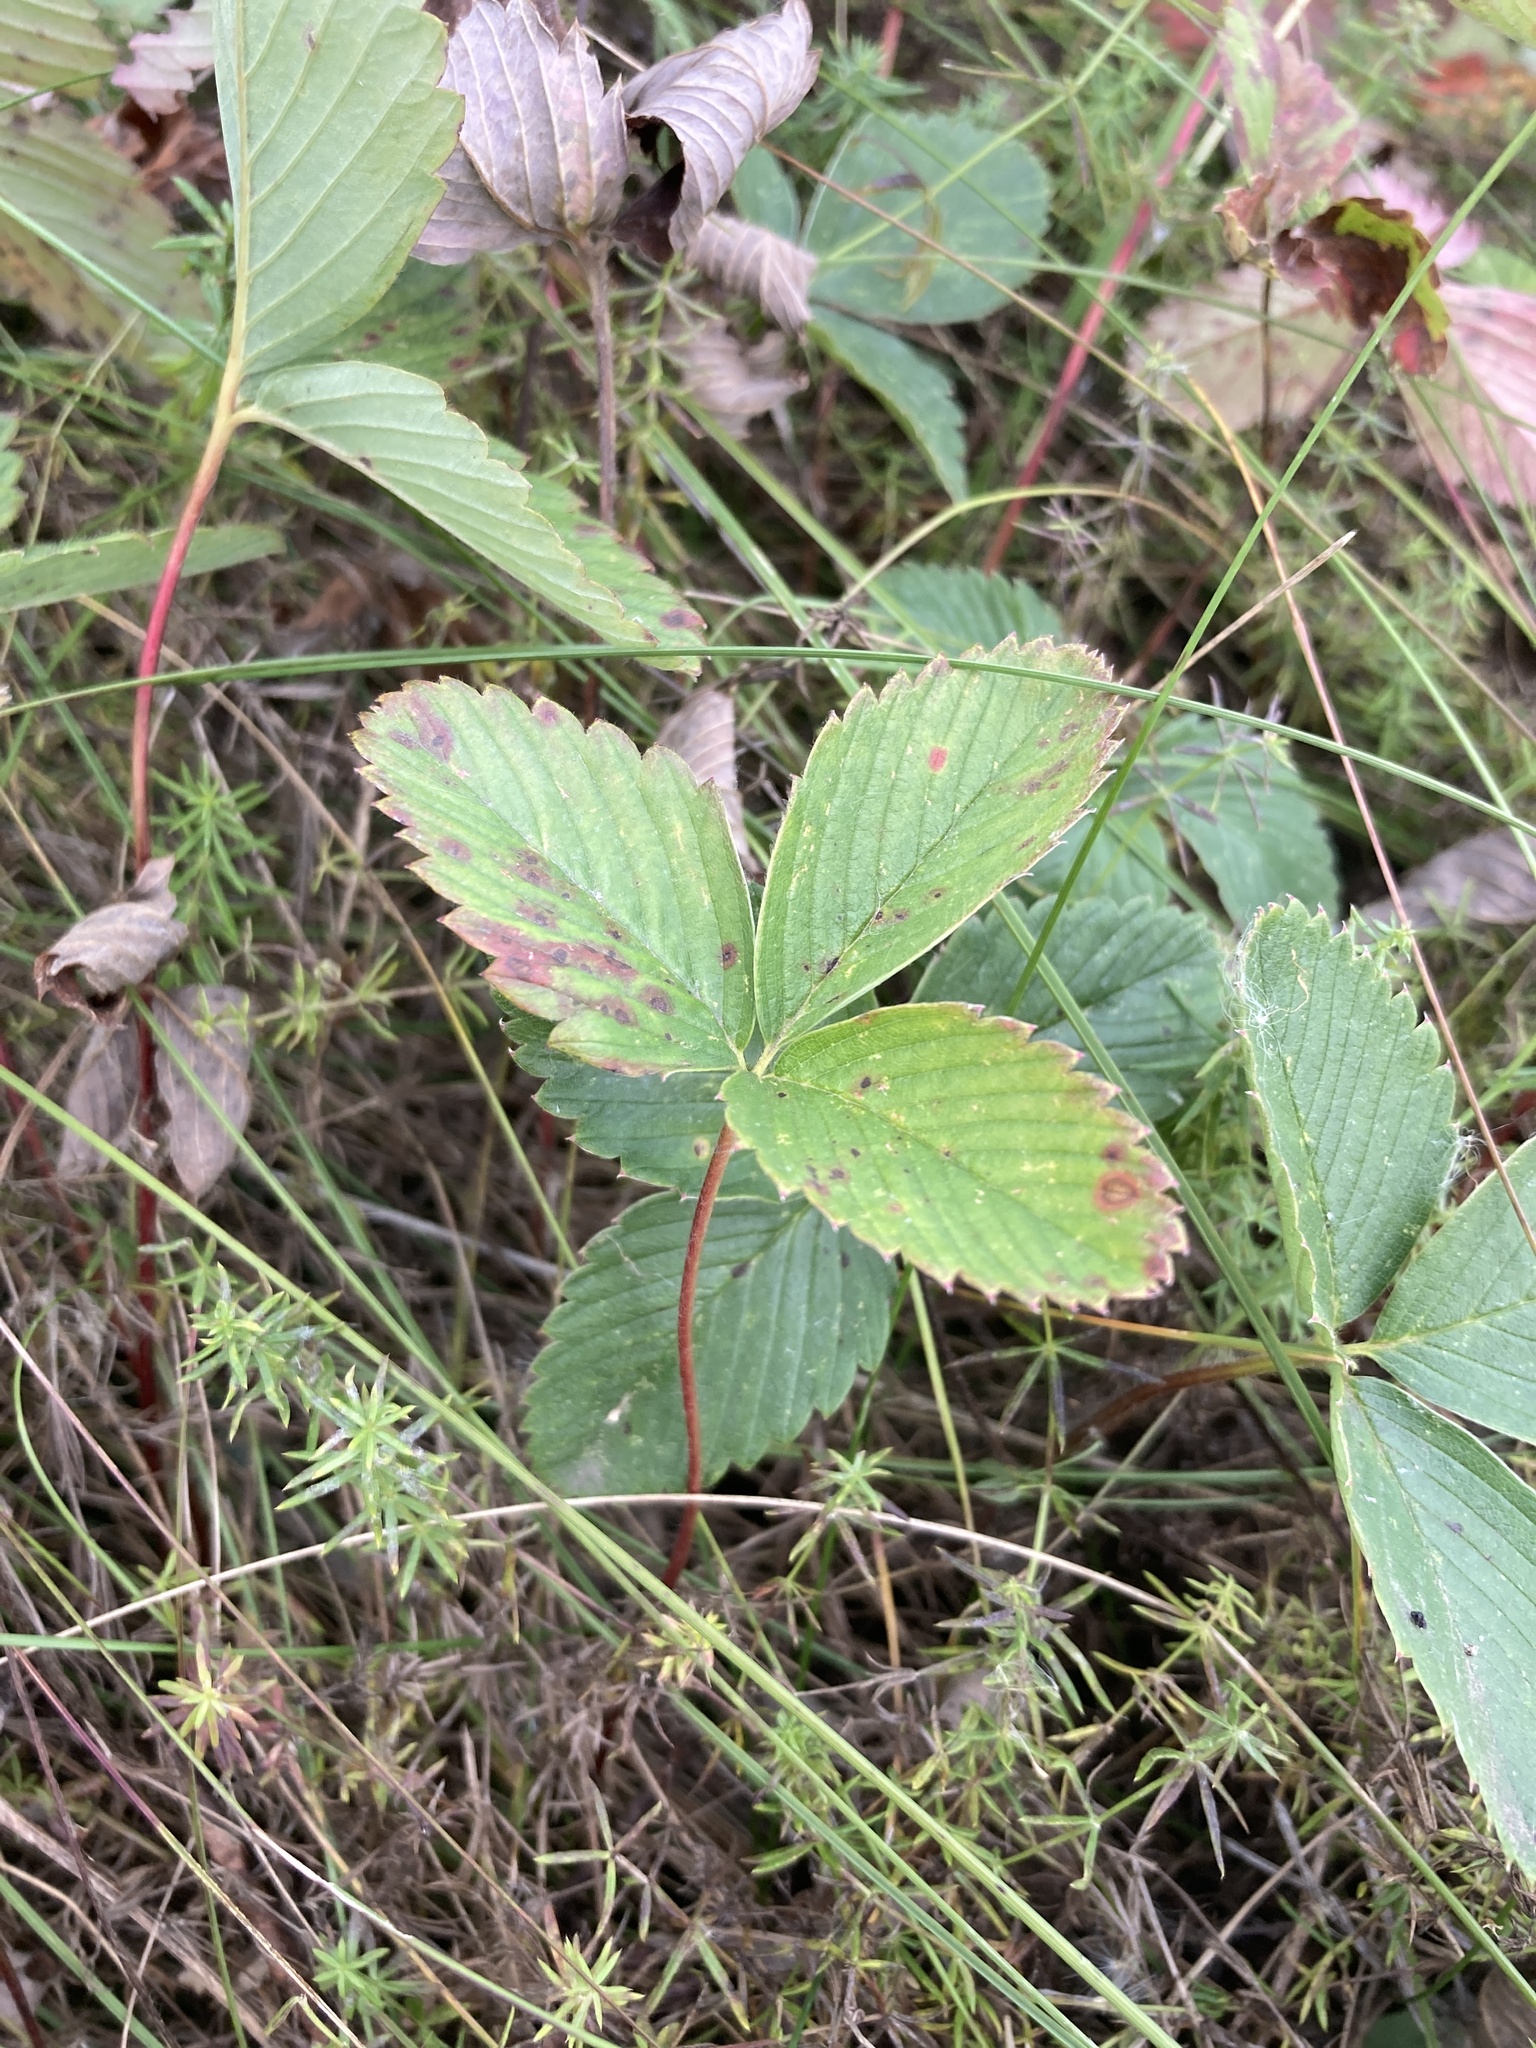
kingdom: Plantae
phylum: Tracheophyta
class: Magnoliopsida
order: Rosales
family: Rosaceae
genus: Fragaria
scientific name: Fragaria viridis
